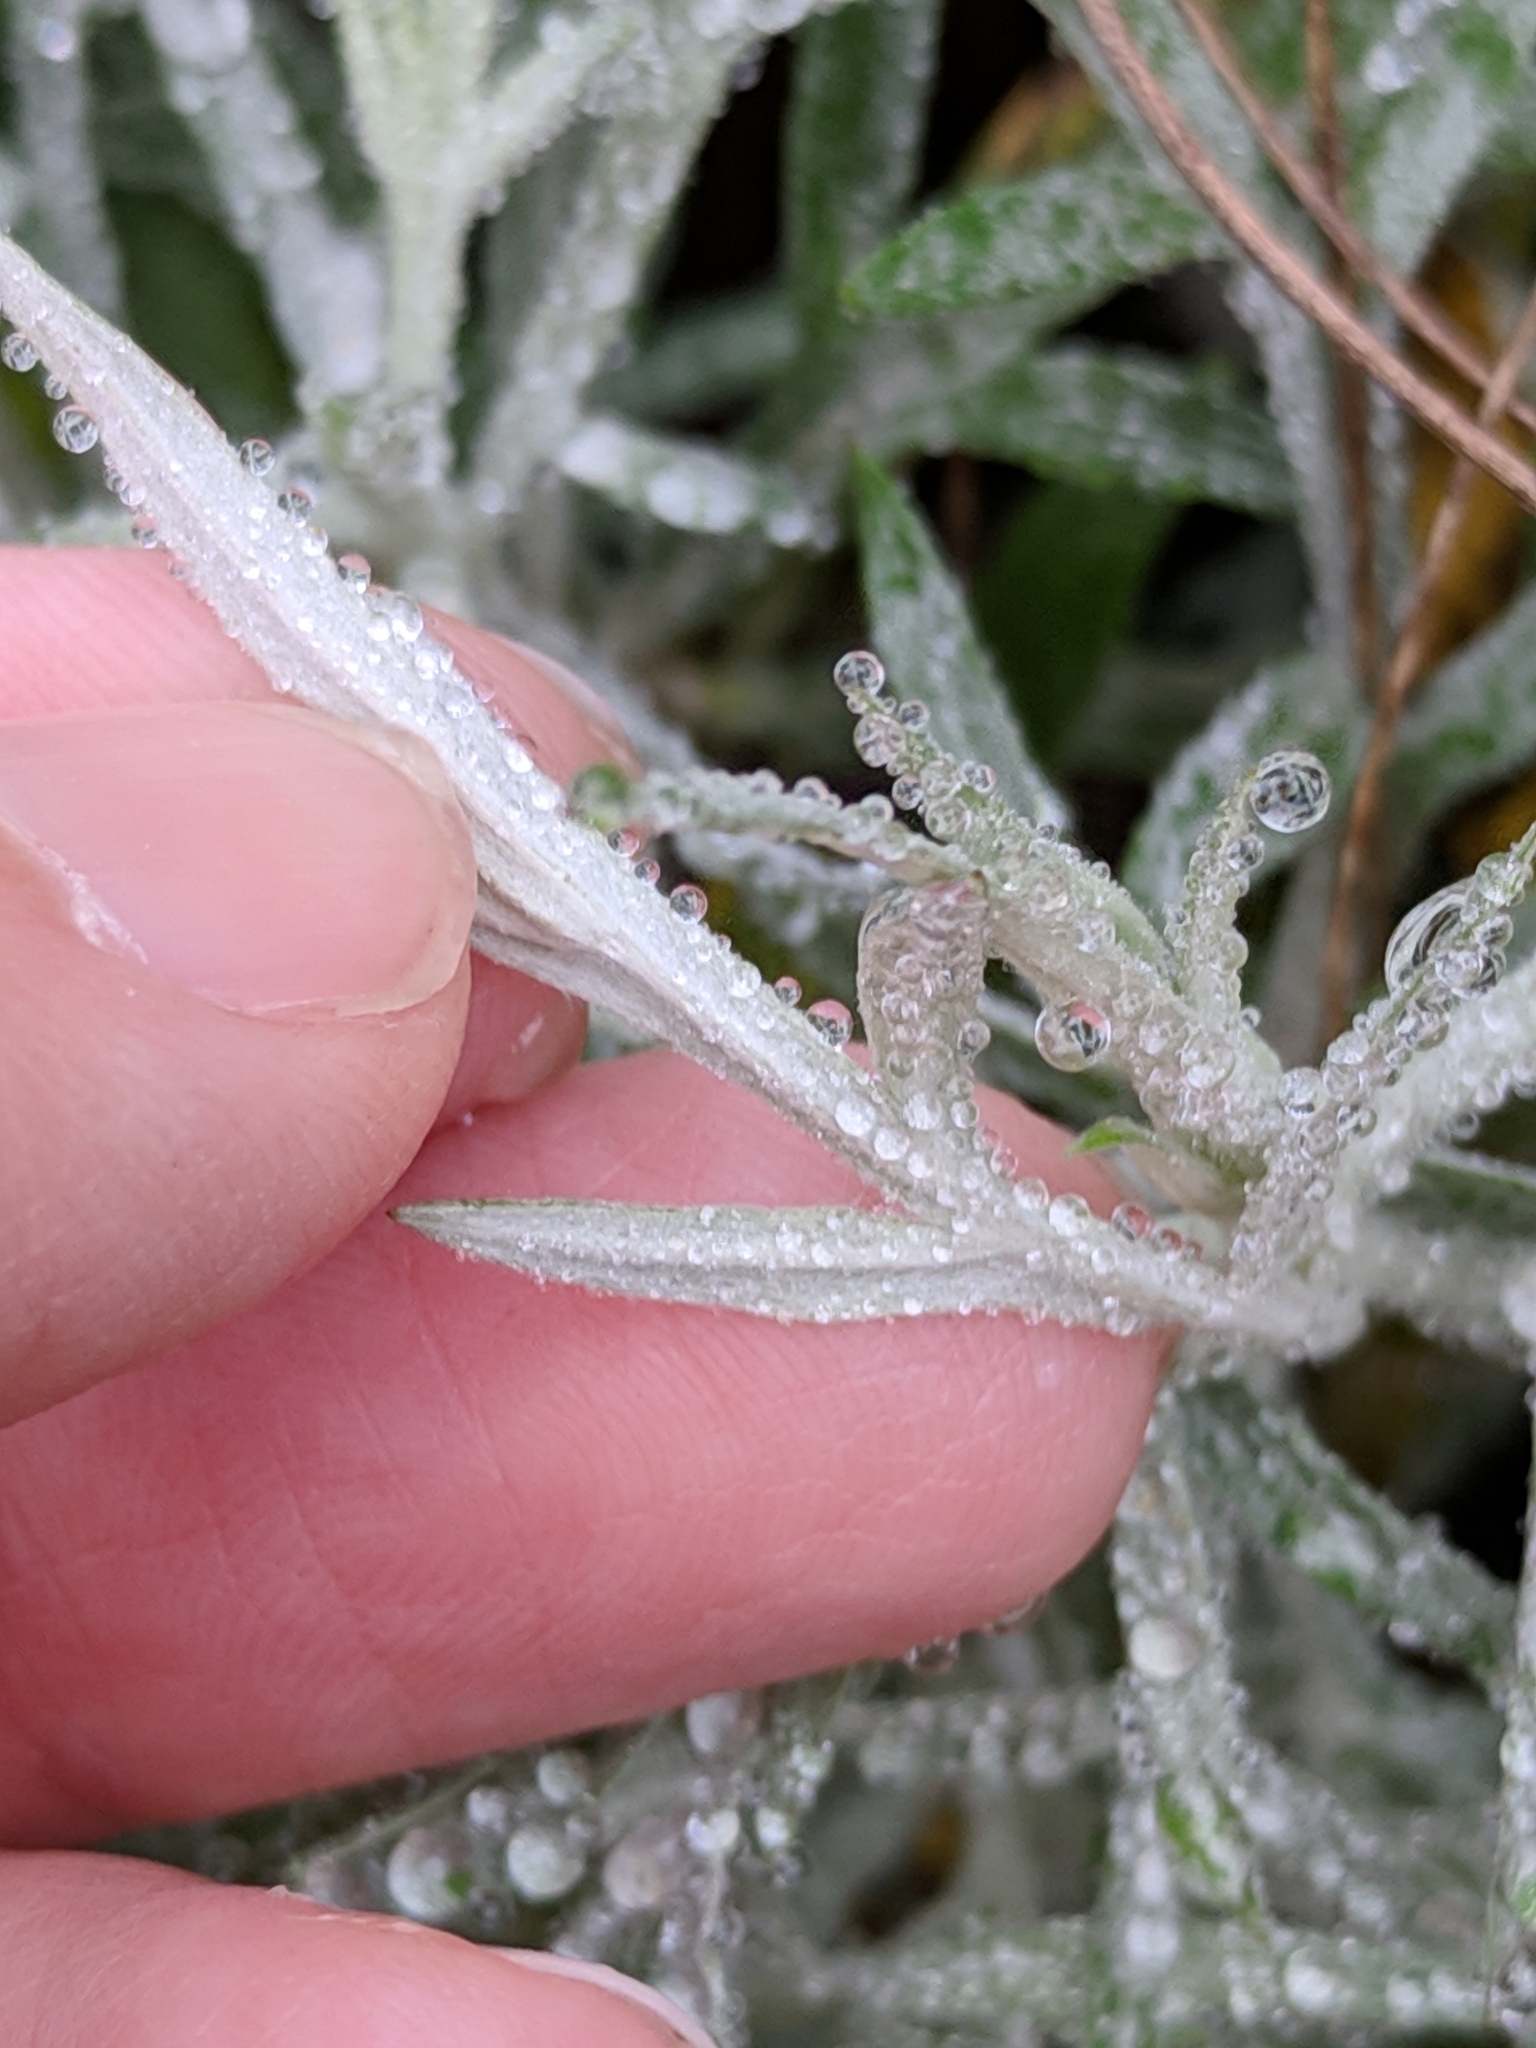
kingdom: Plantae
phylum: Tracheophyta
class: Magnoliopsida
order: Asterales
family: Asteraceae
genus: Artemisia
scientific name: Artemisia ludoviciana
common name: Western mugwort
